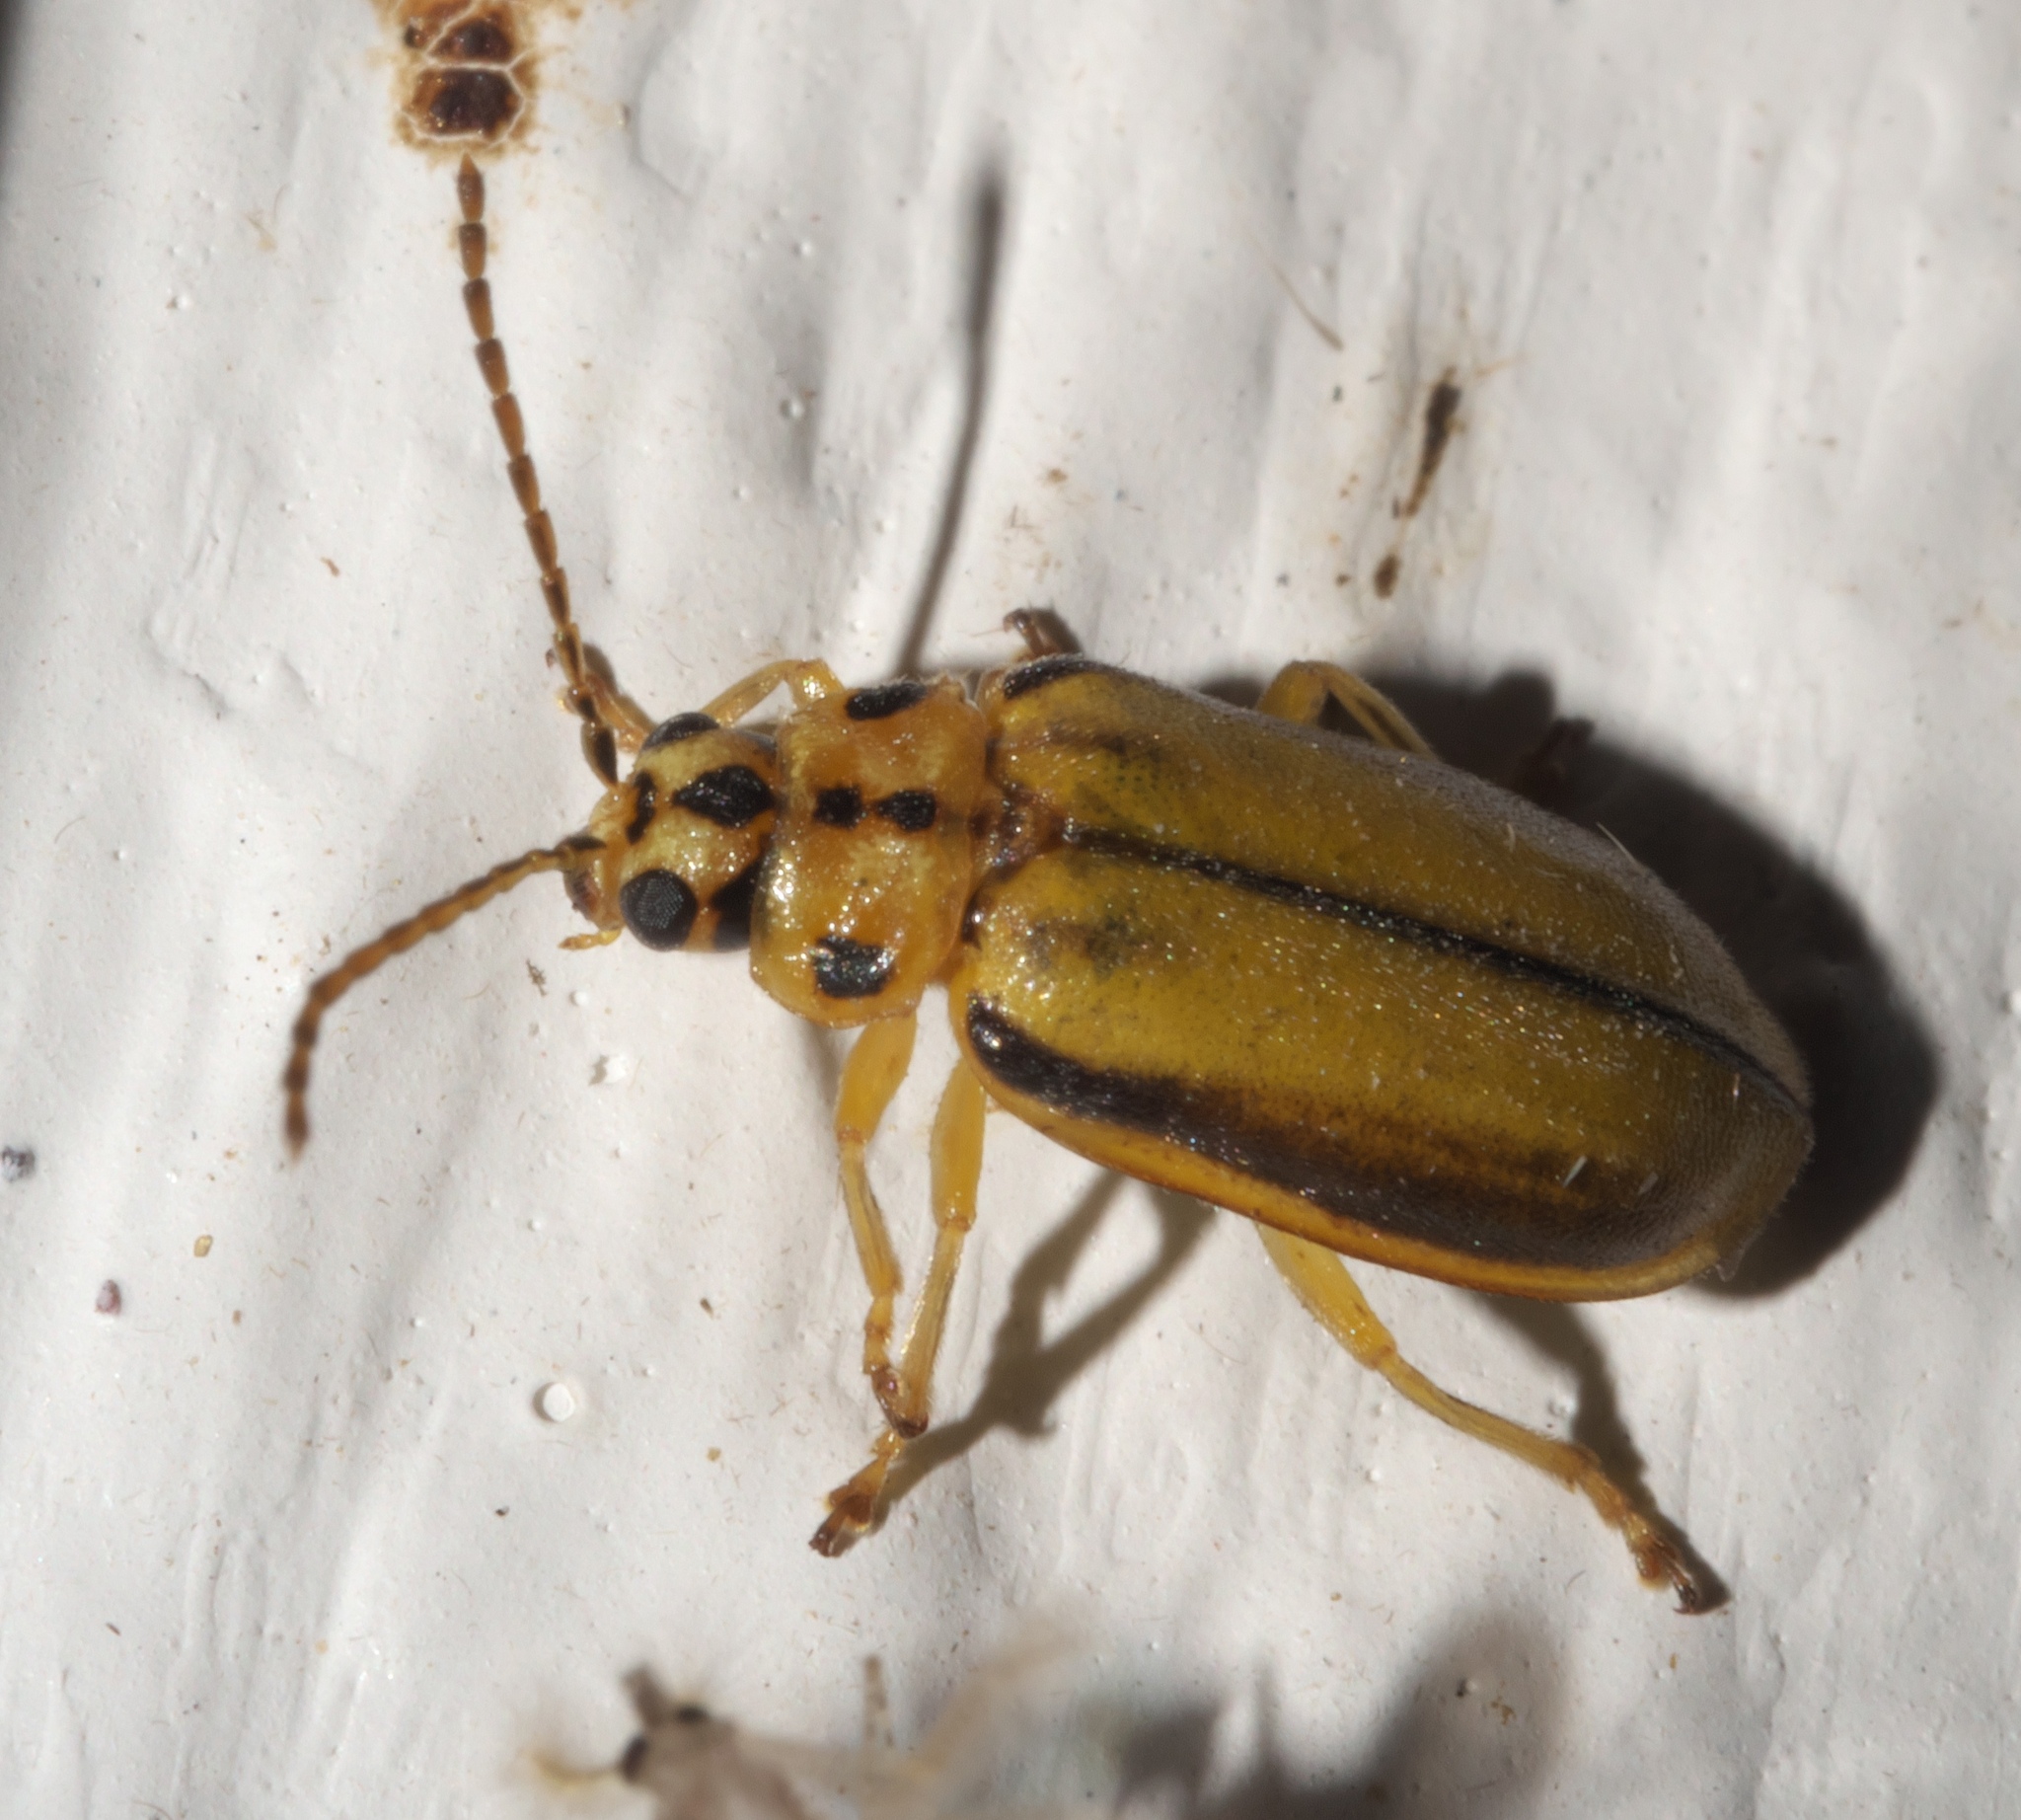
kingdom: Animalia
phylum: Arthropoda
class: Insecta
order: Coleoptera
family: Chrysomelidae
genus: Xanthogaleruca
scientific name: Xanthogaleruca luteola
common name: Elm leaf beetle
